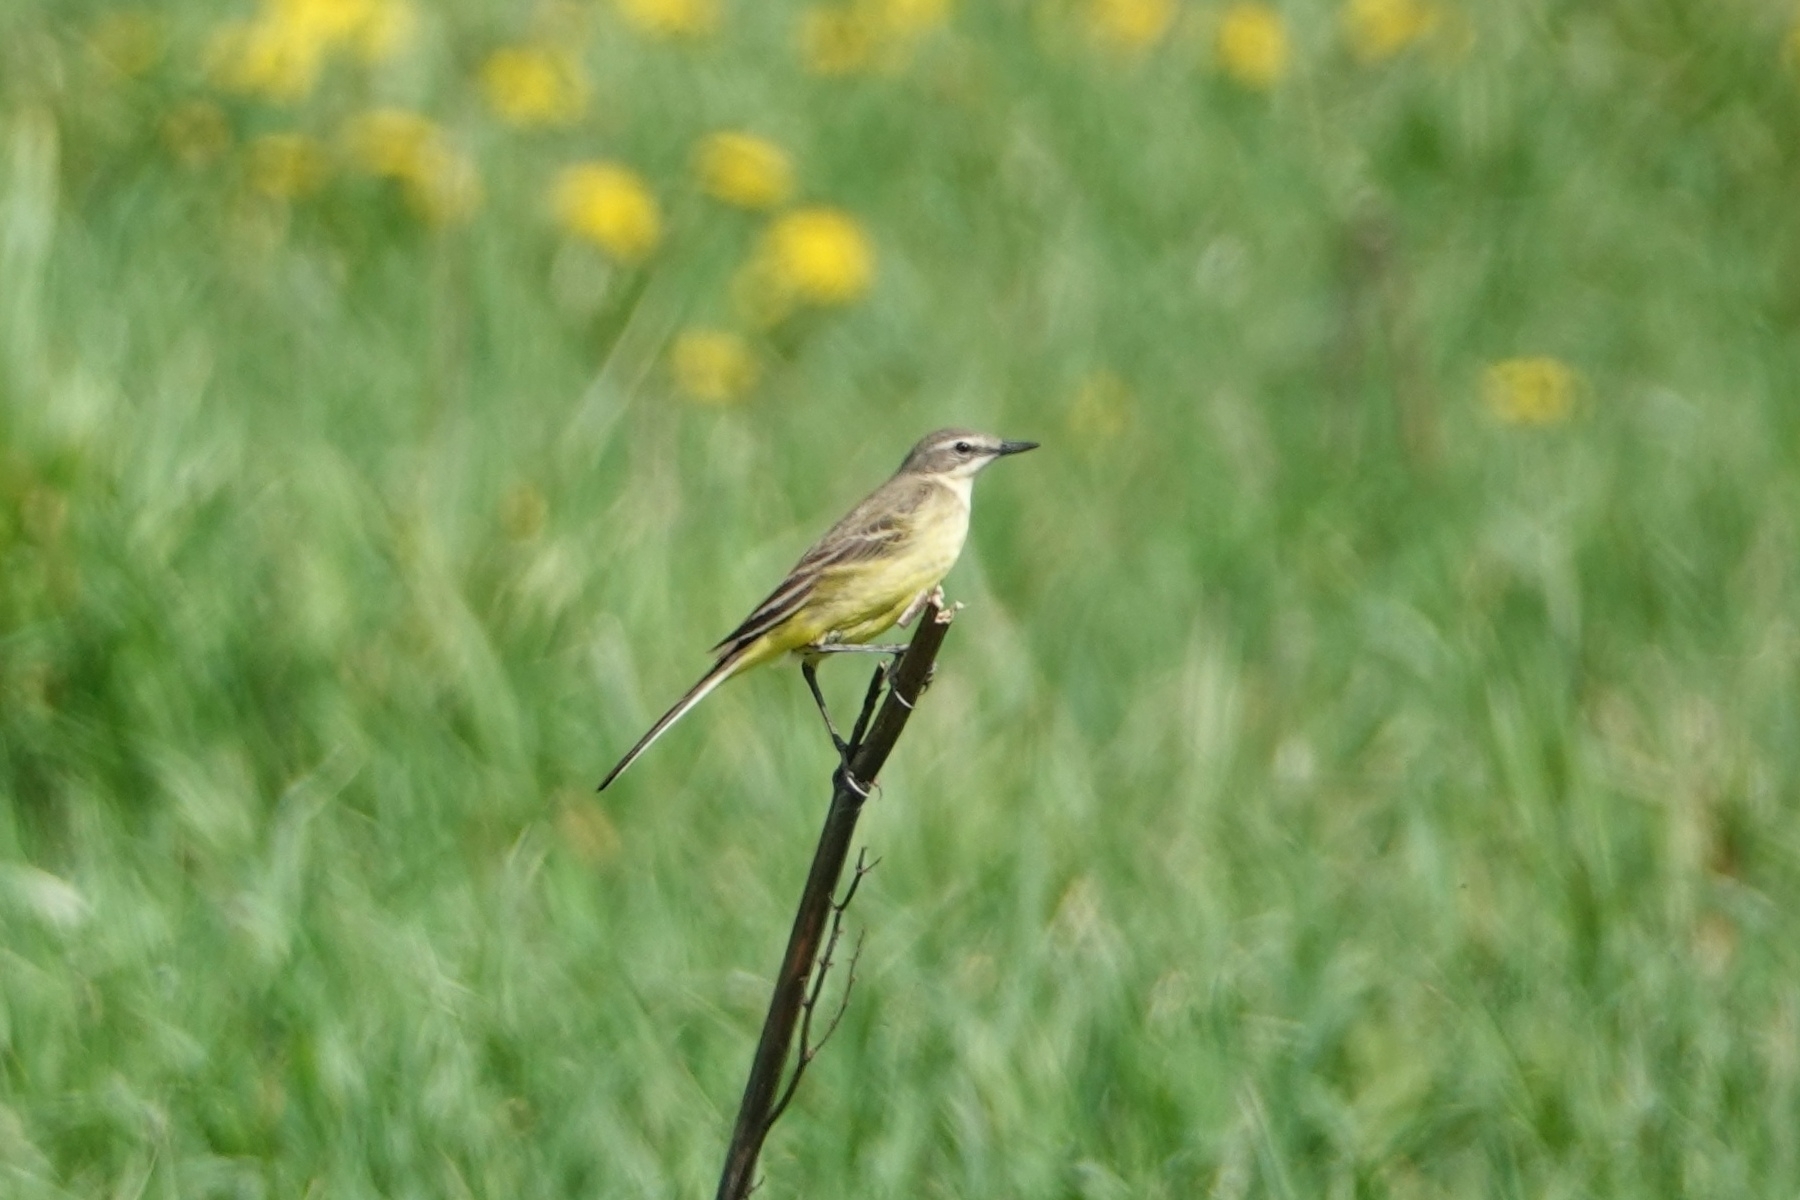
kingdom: Animalia
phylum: Chordata
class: Aves
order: Passeriformes
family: Motacillidae
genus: Motacilla
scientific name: Motacilla flava
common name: Western yellow wagtail
